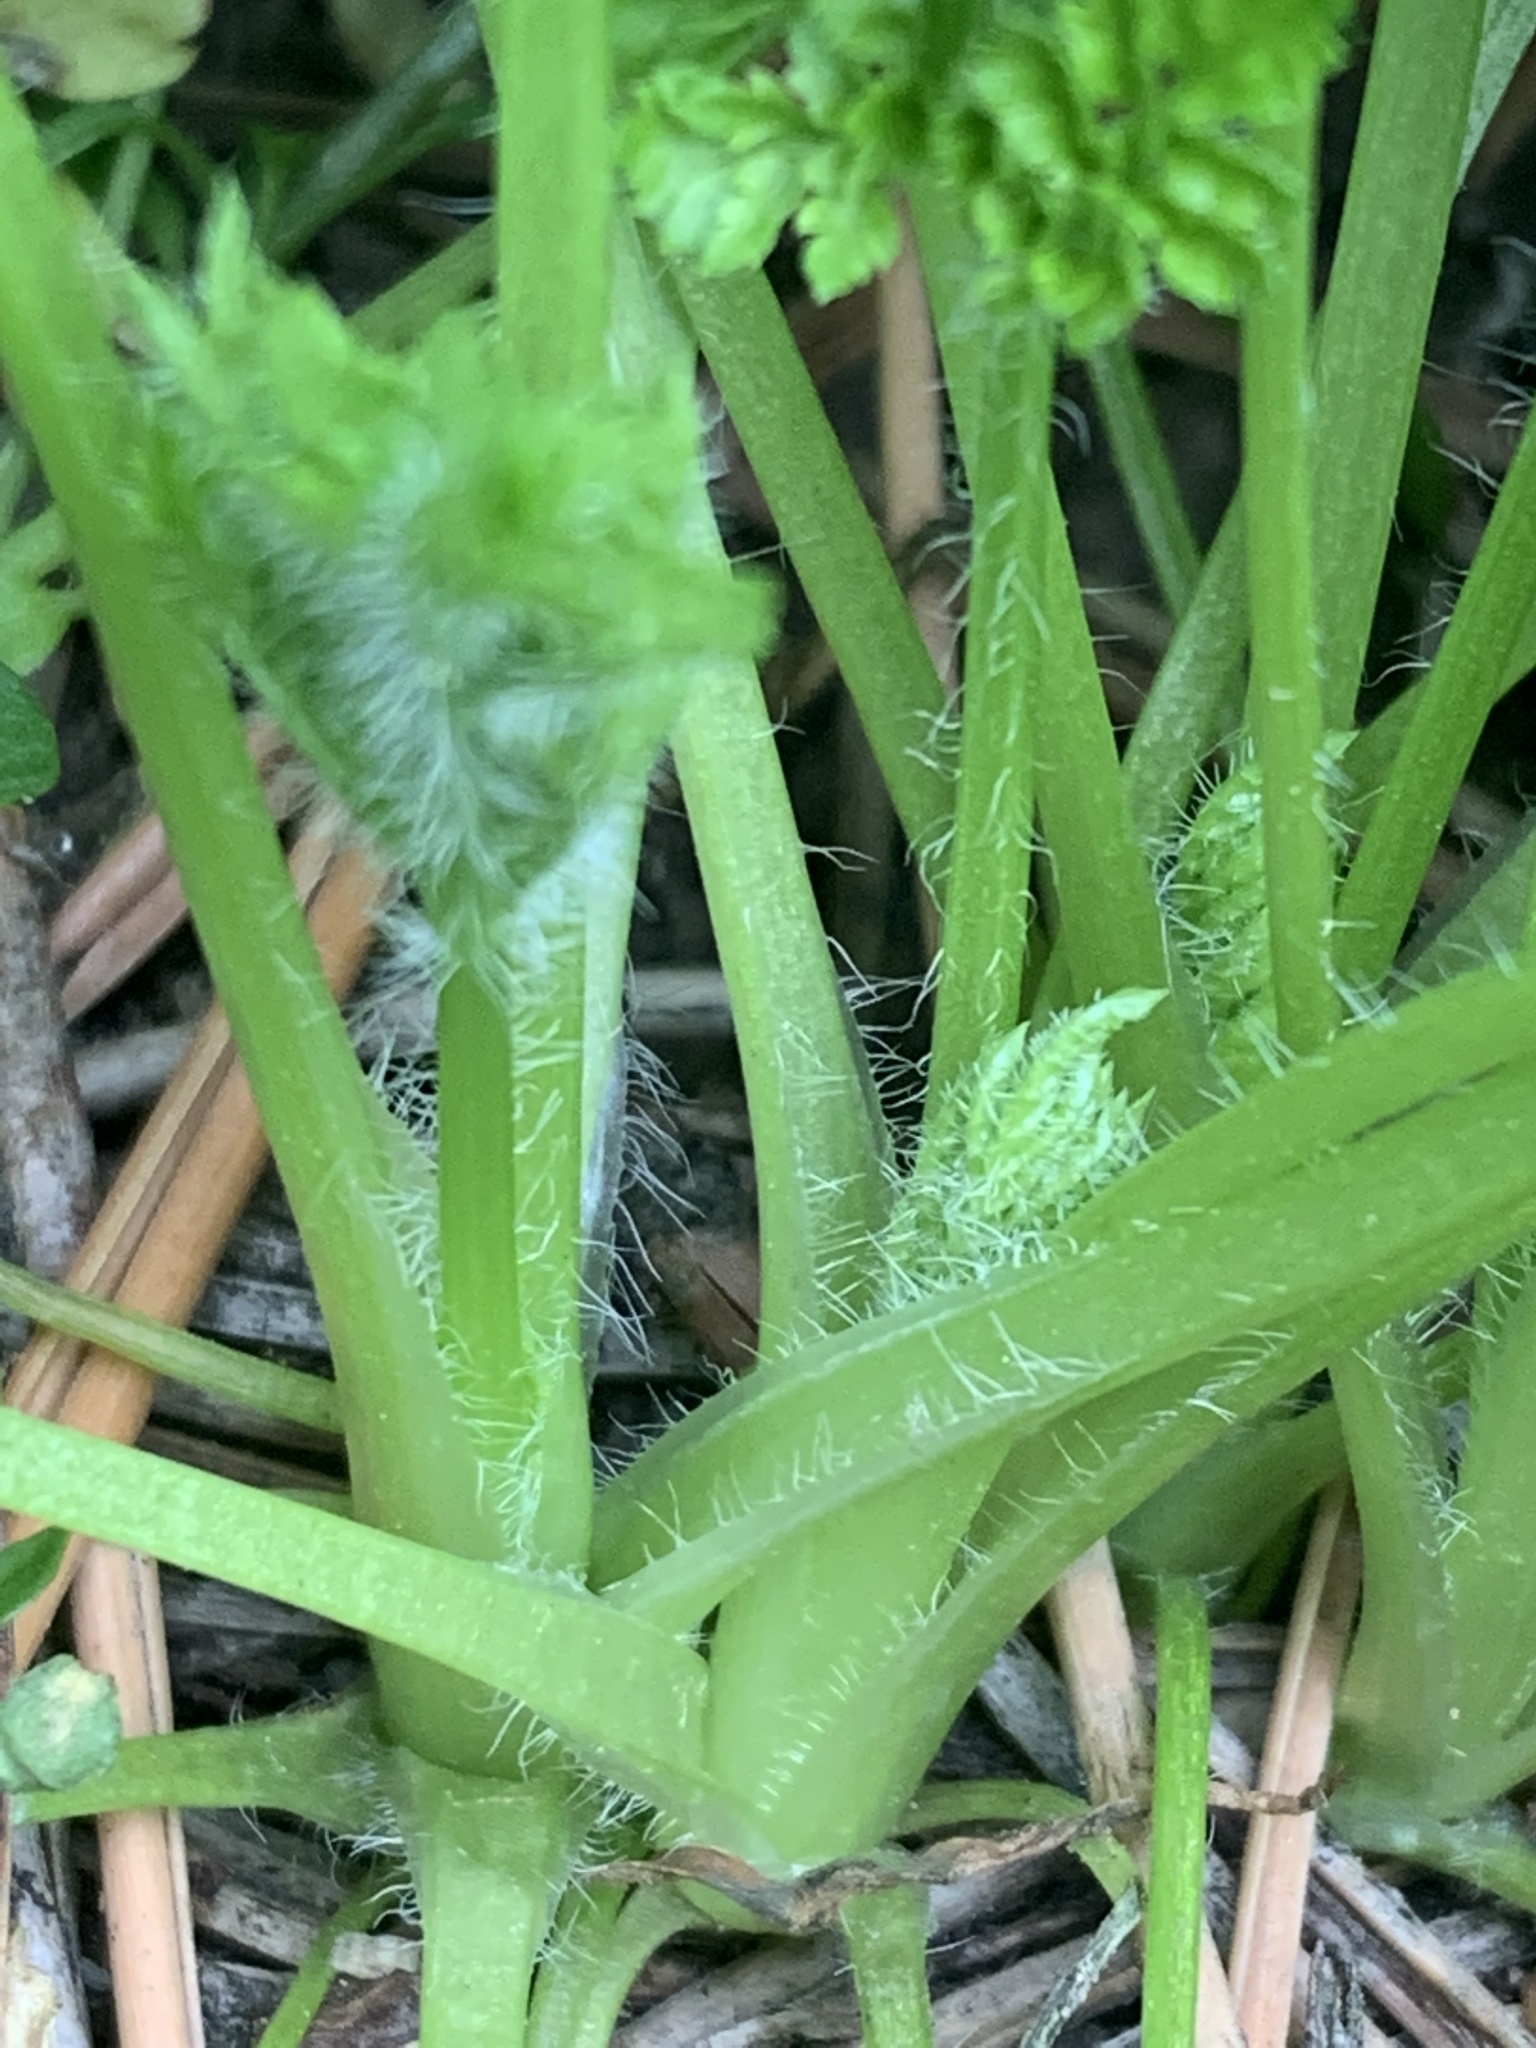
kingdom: Plantae
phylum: Tracheophyta
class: Magnoliopsida
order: Apiales
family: Apiaceae
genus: Anthriscus
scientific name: Anthriscus caucalis
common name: Bur chervil
